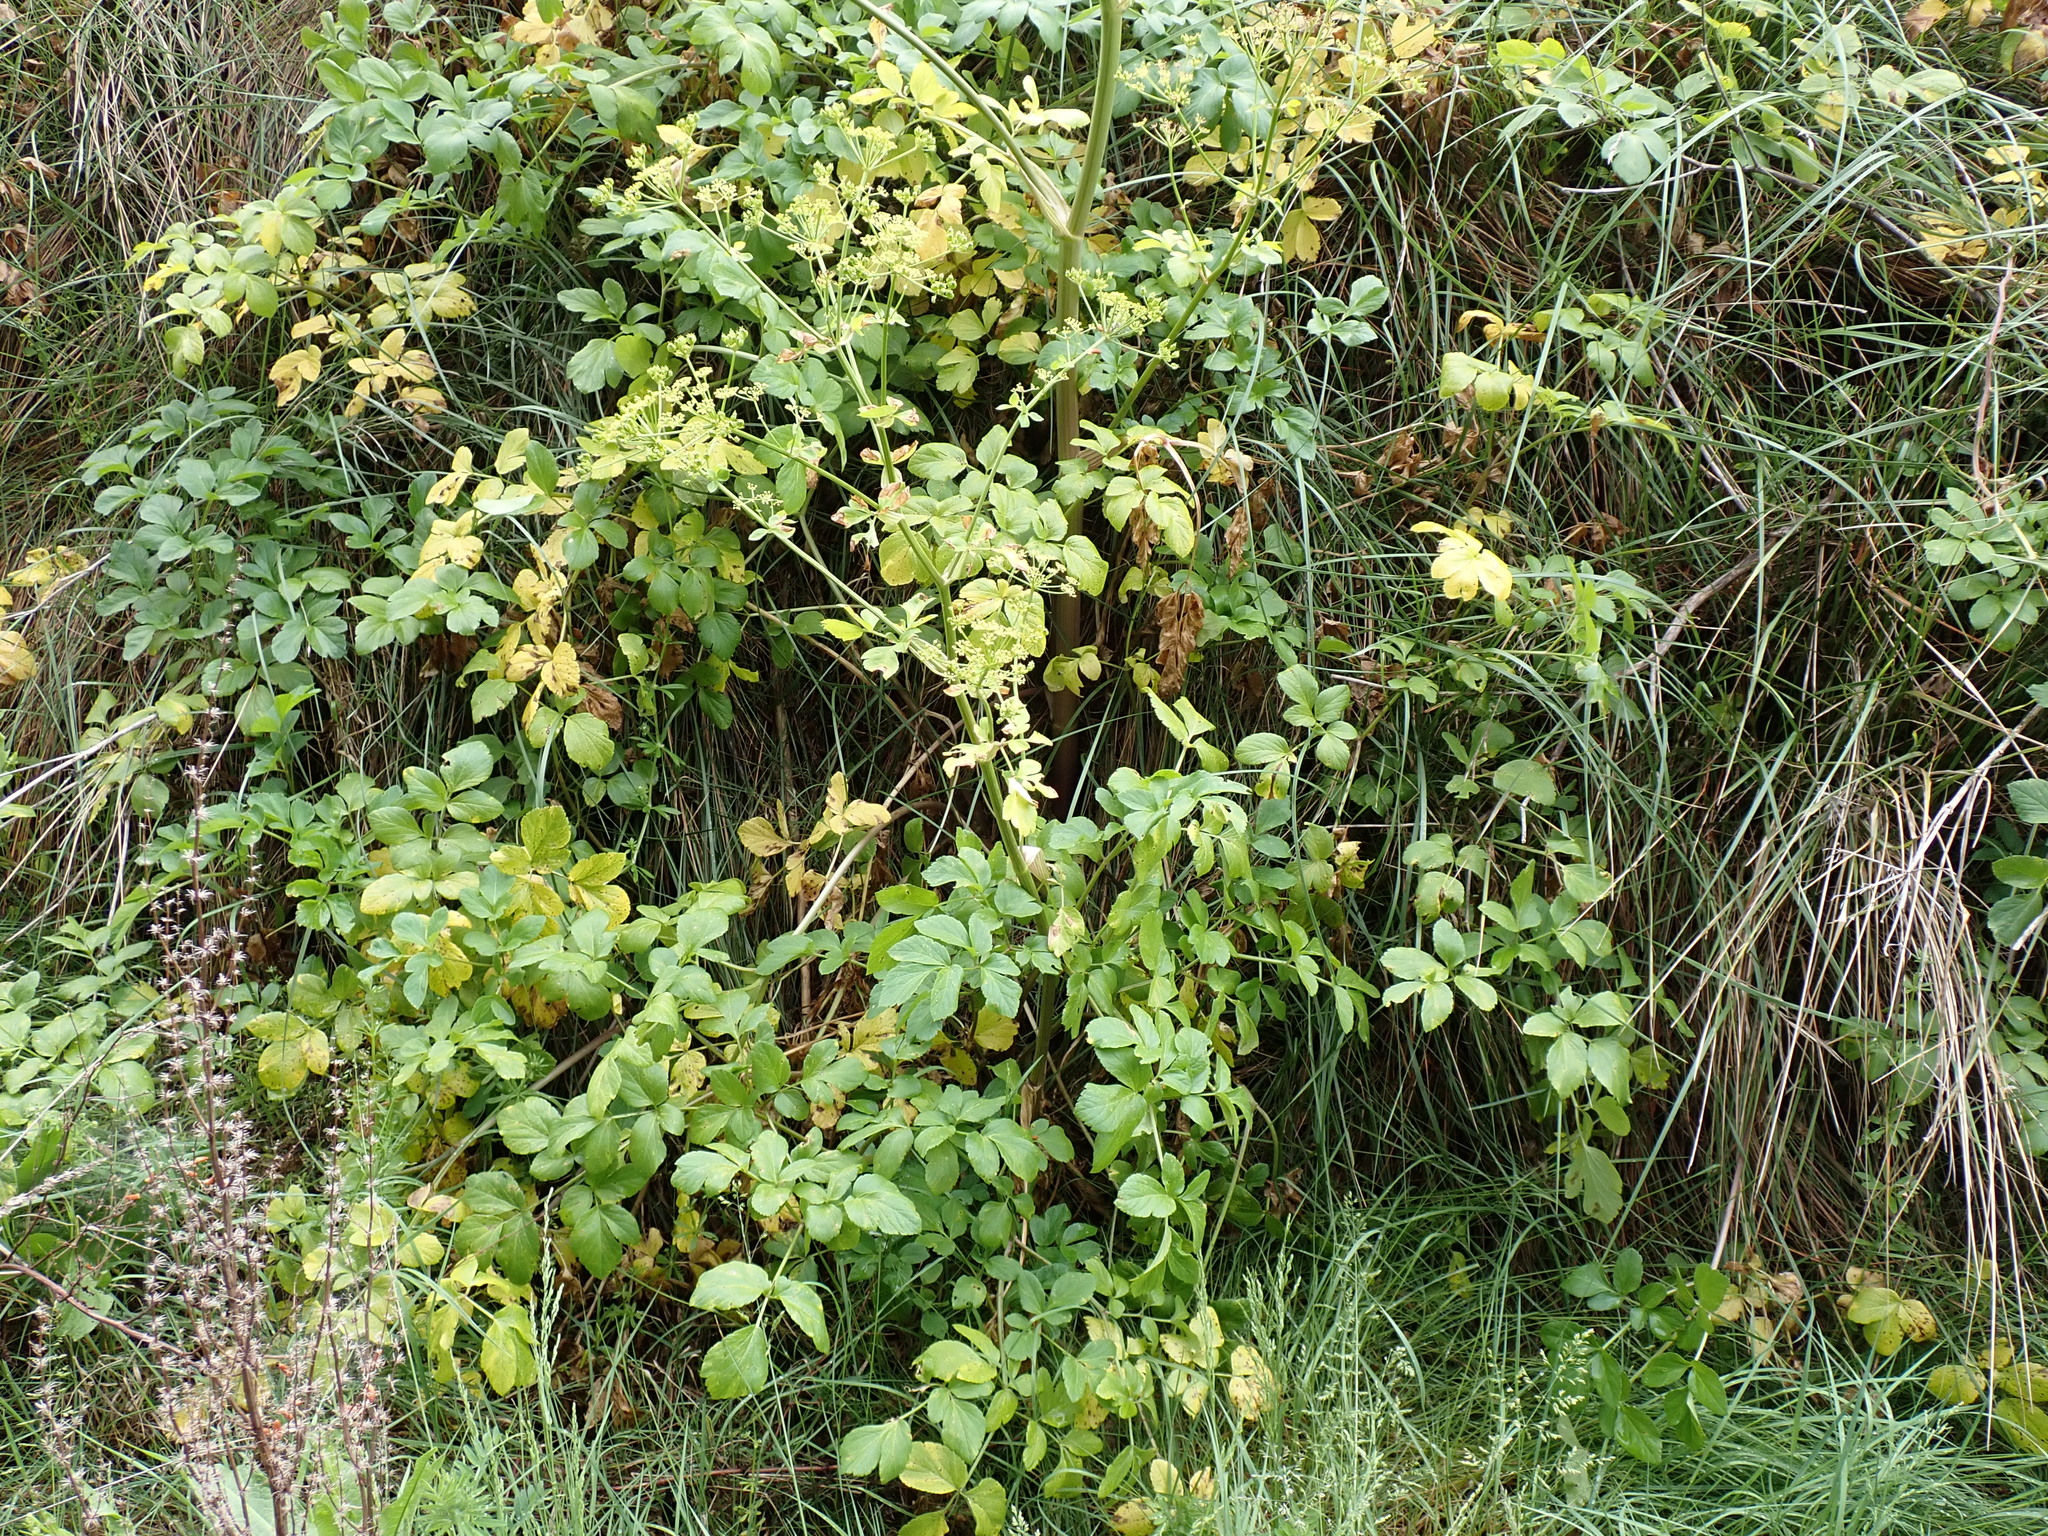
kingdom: Plantae
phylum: Tracheophyta
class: Magnoliopsida
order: Apiales
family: Apiaceae
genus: Smyrnium
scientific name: Smyrnium olusatrum
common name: Alexanders
